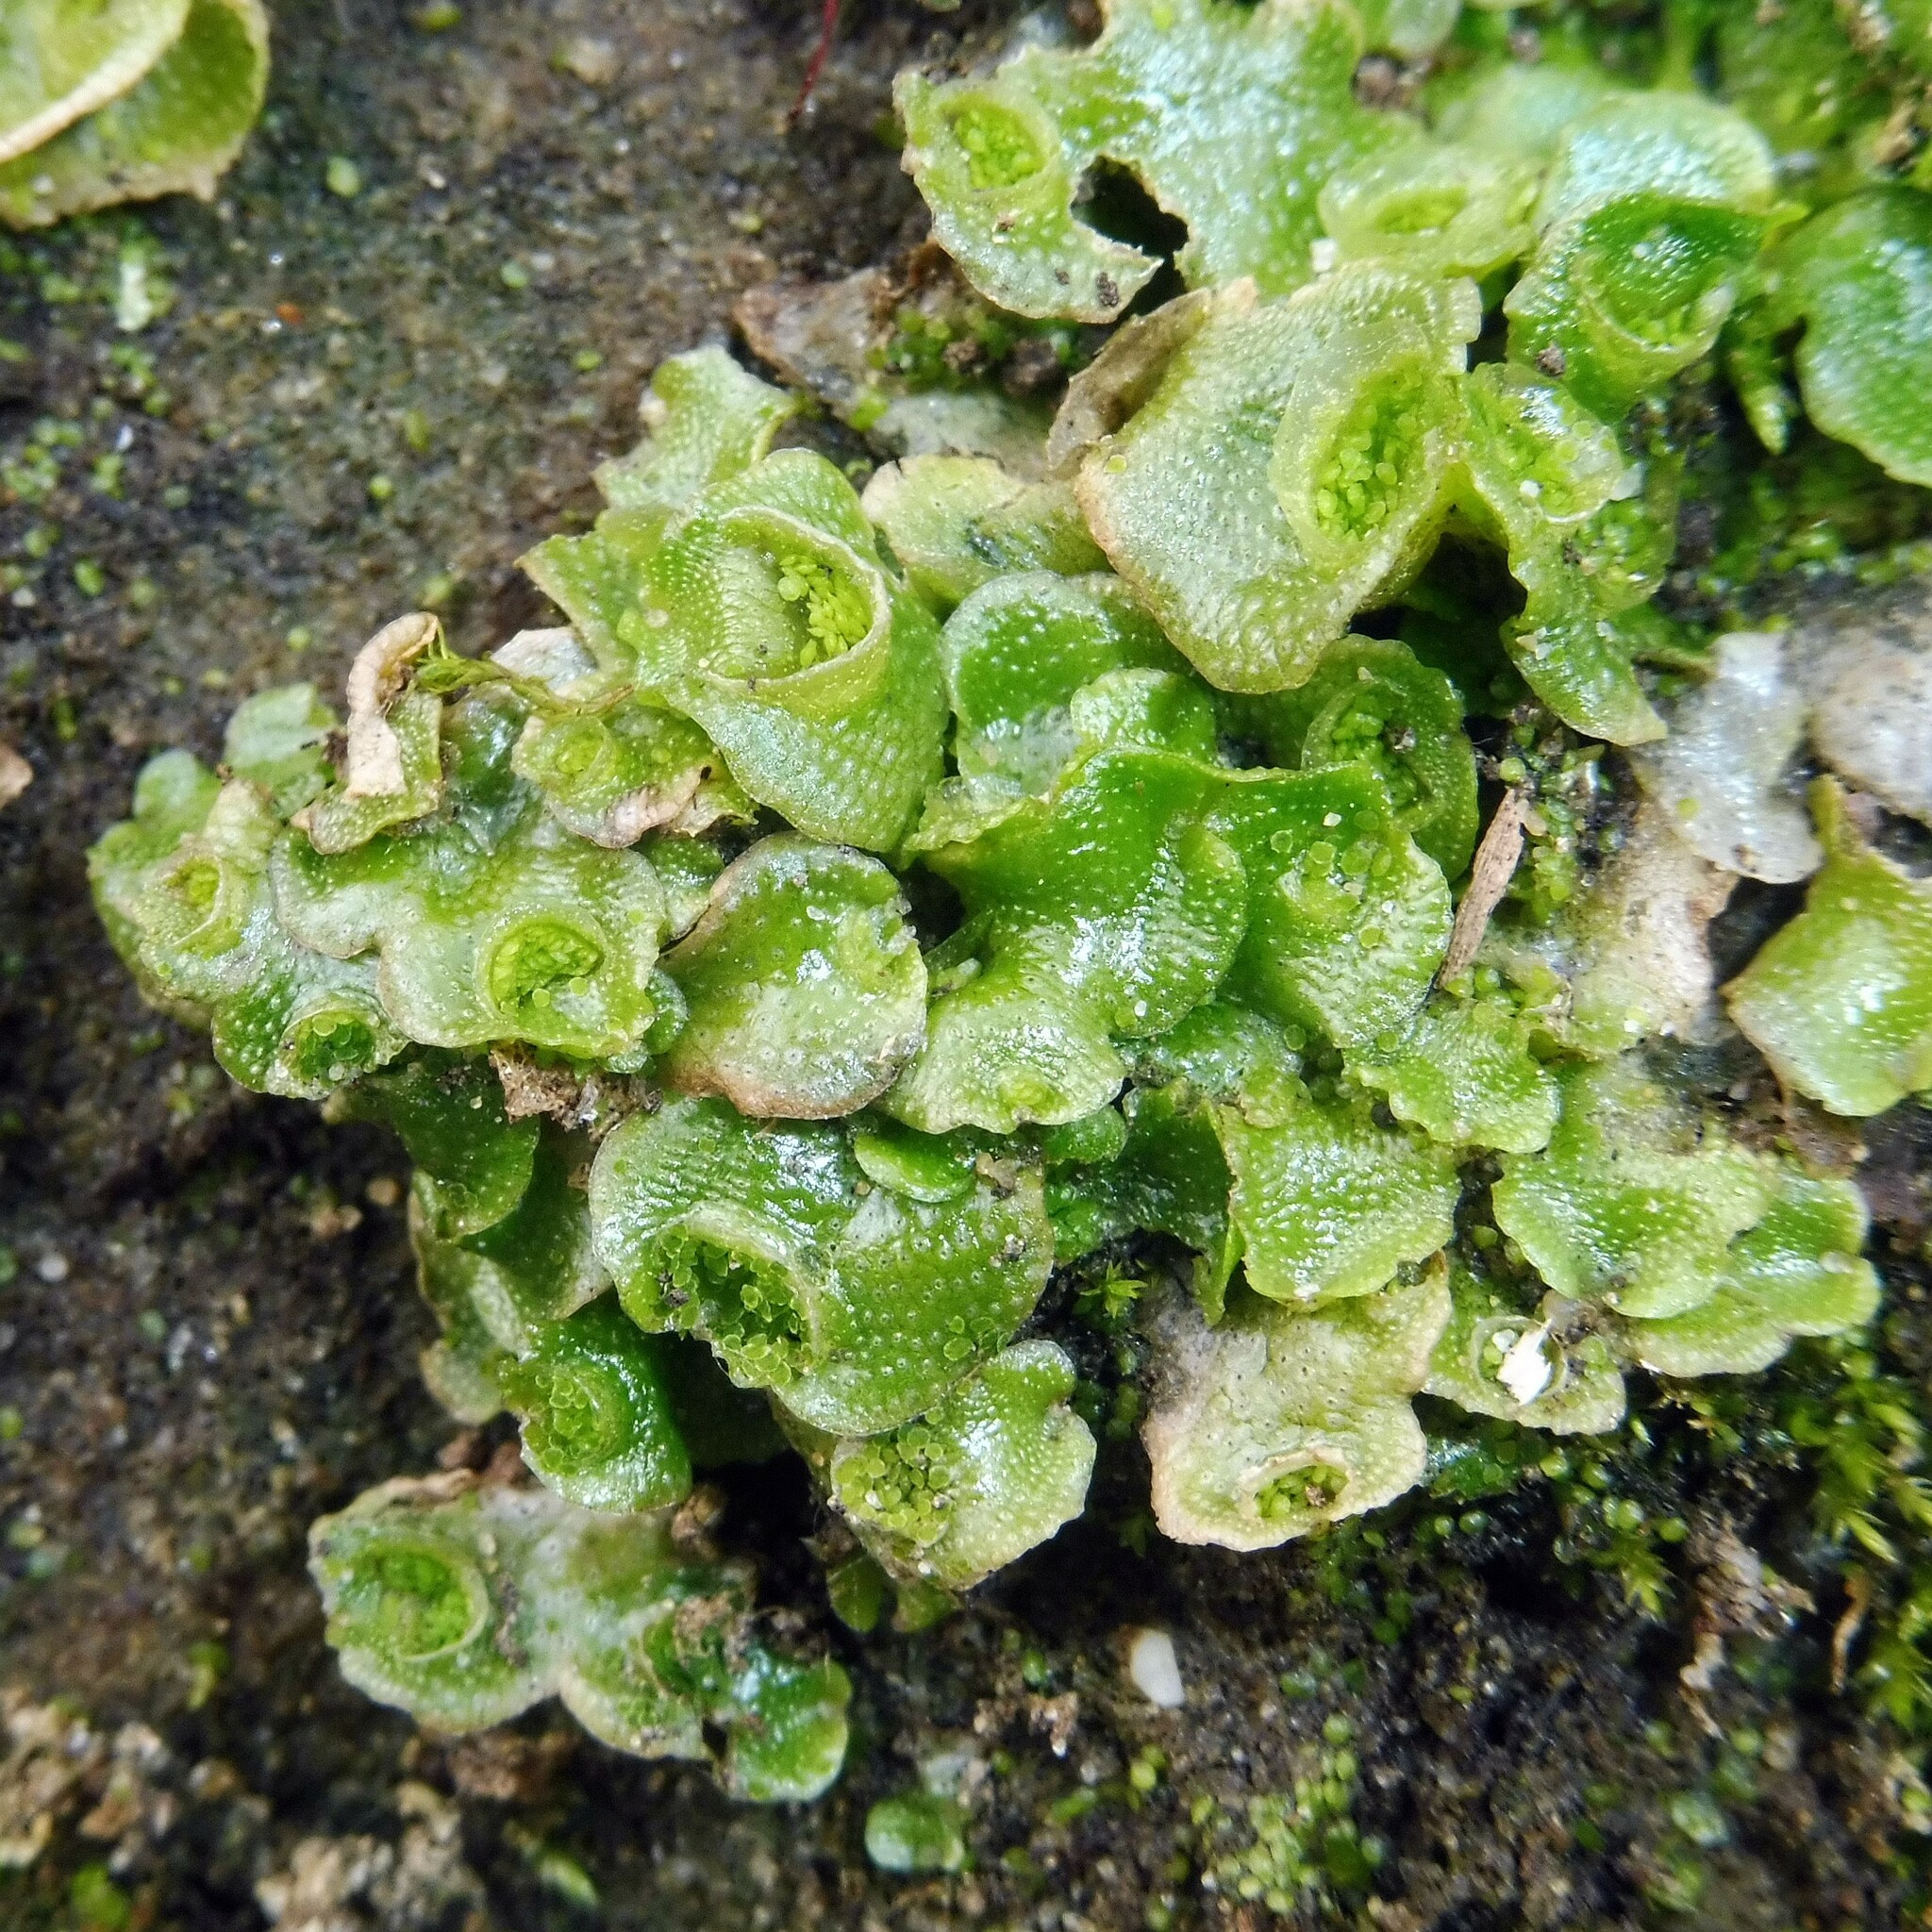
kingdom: Plantae
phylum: Marchantiophyta
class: Marchantiopsida
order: Lunulariales
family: Lunulariaceae
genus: Lunularia
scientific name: Lunularia cruciata
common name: Crescent-cup liverwort
